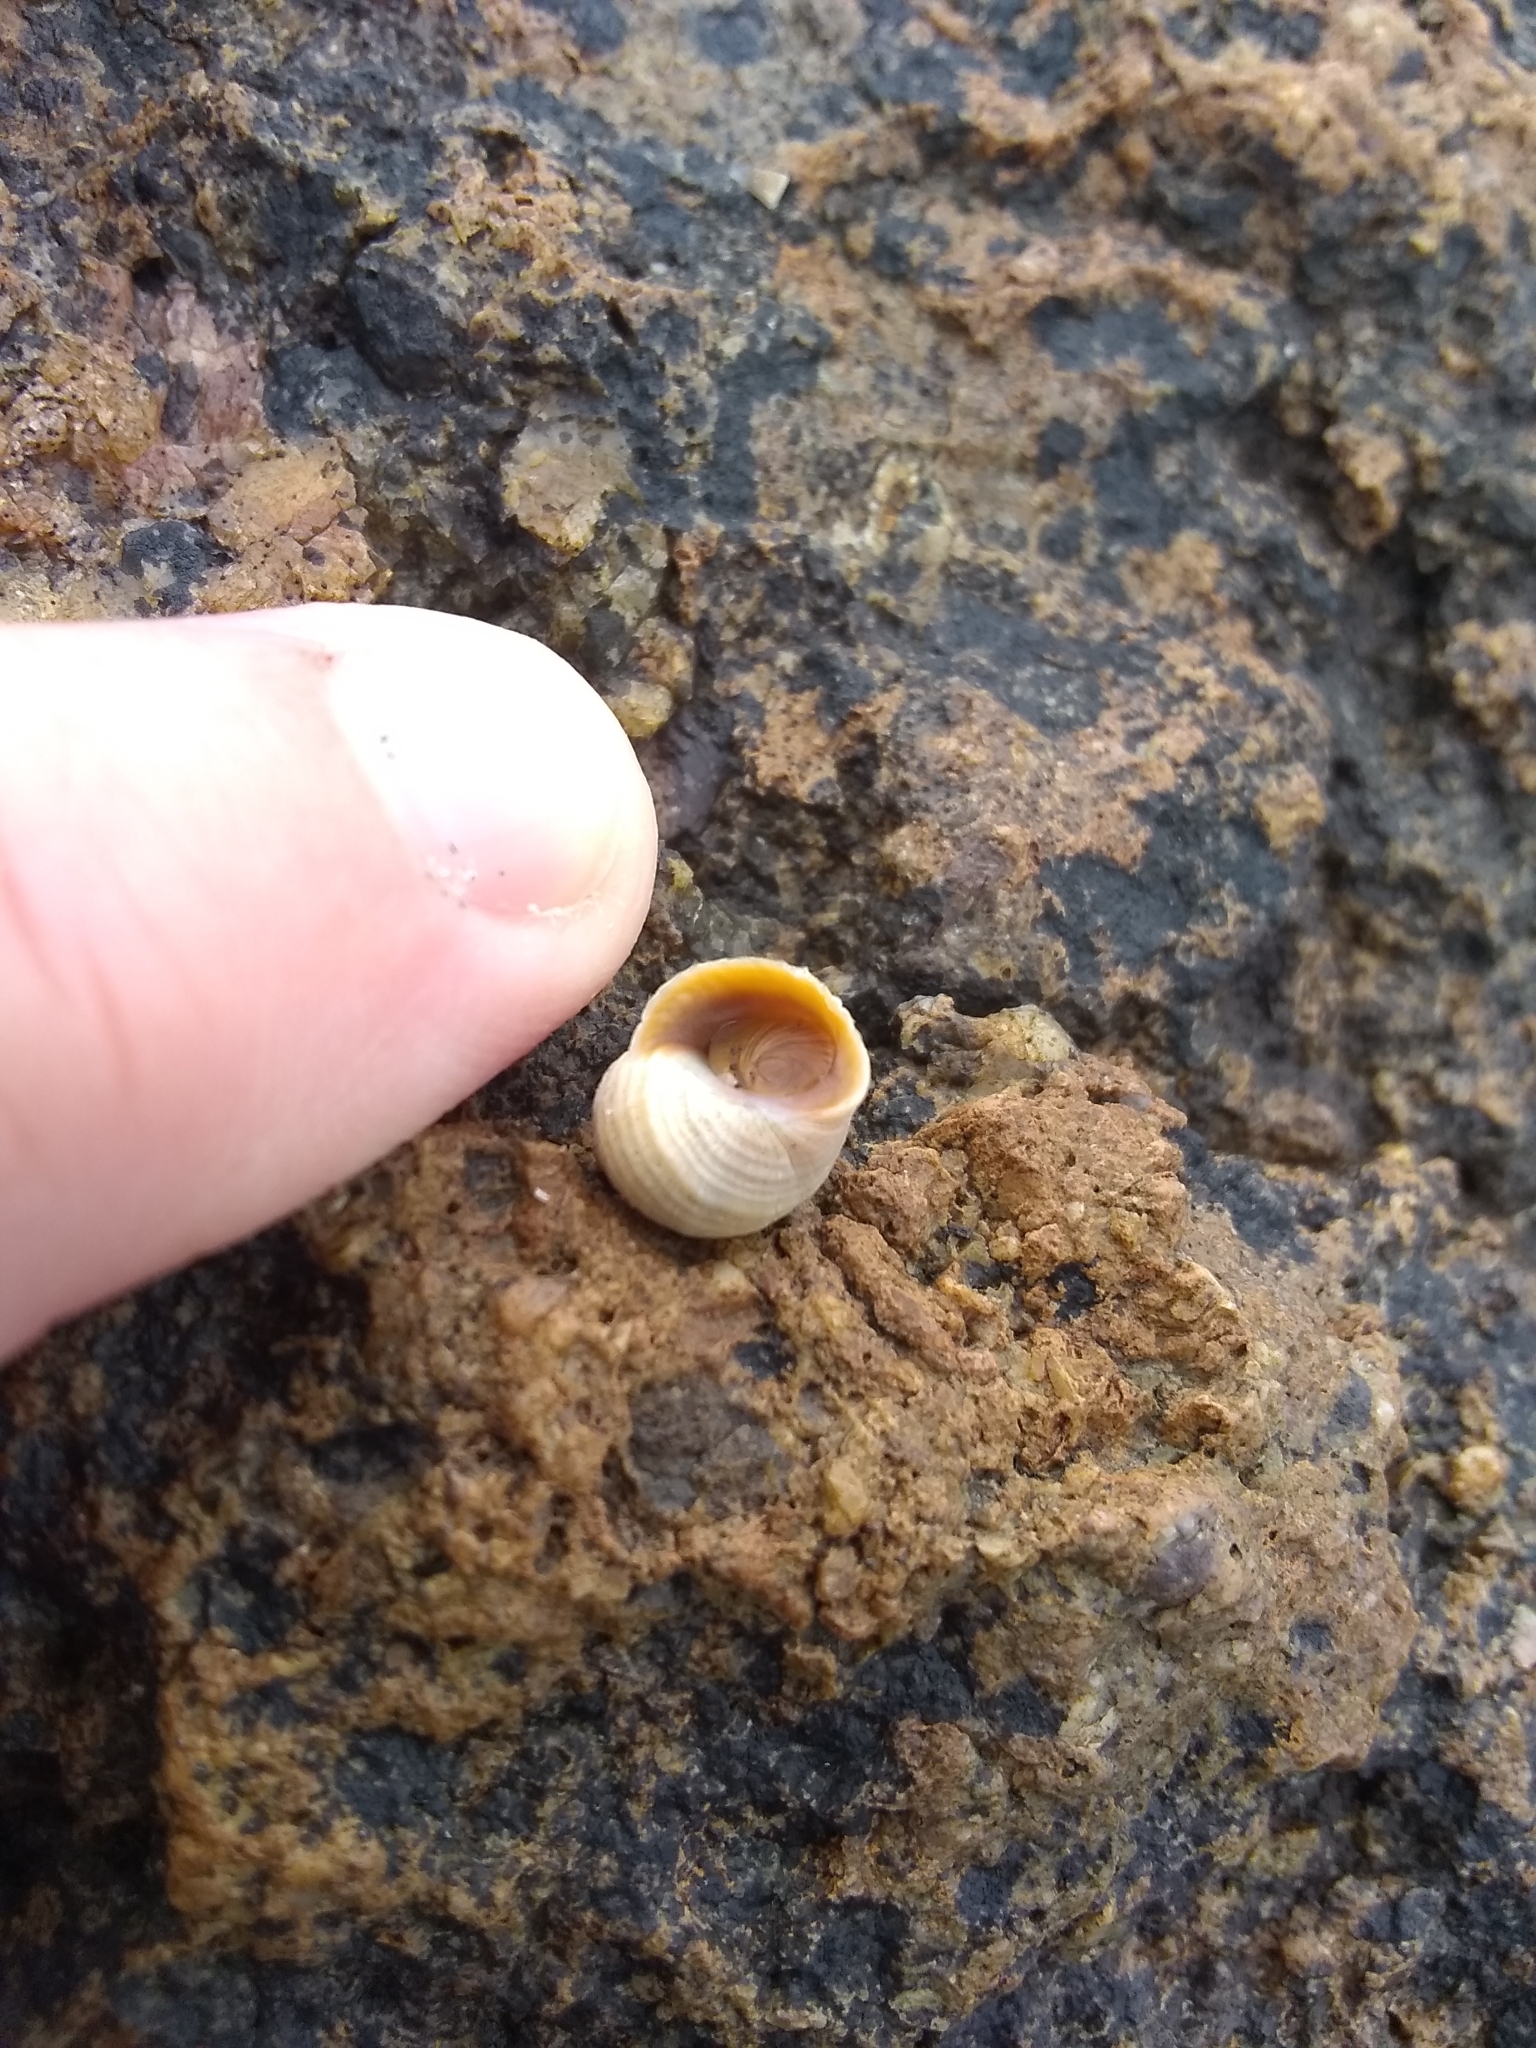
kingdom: Animalia
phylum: Mollusca
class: Gastropoda
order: Littorinimorpha
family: Littorinidae
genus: Littorina
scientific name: Littorina saxatilis
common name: Black-lined periwinkle
